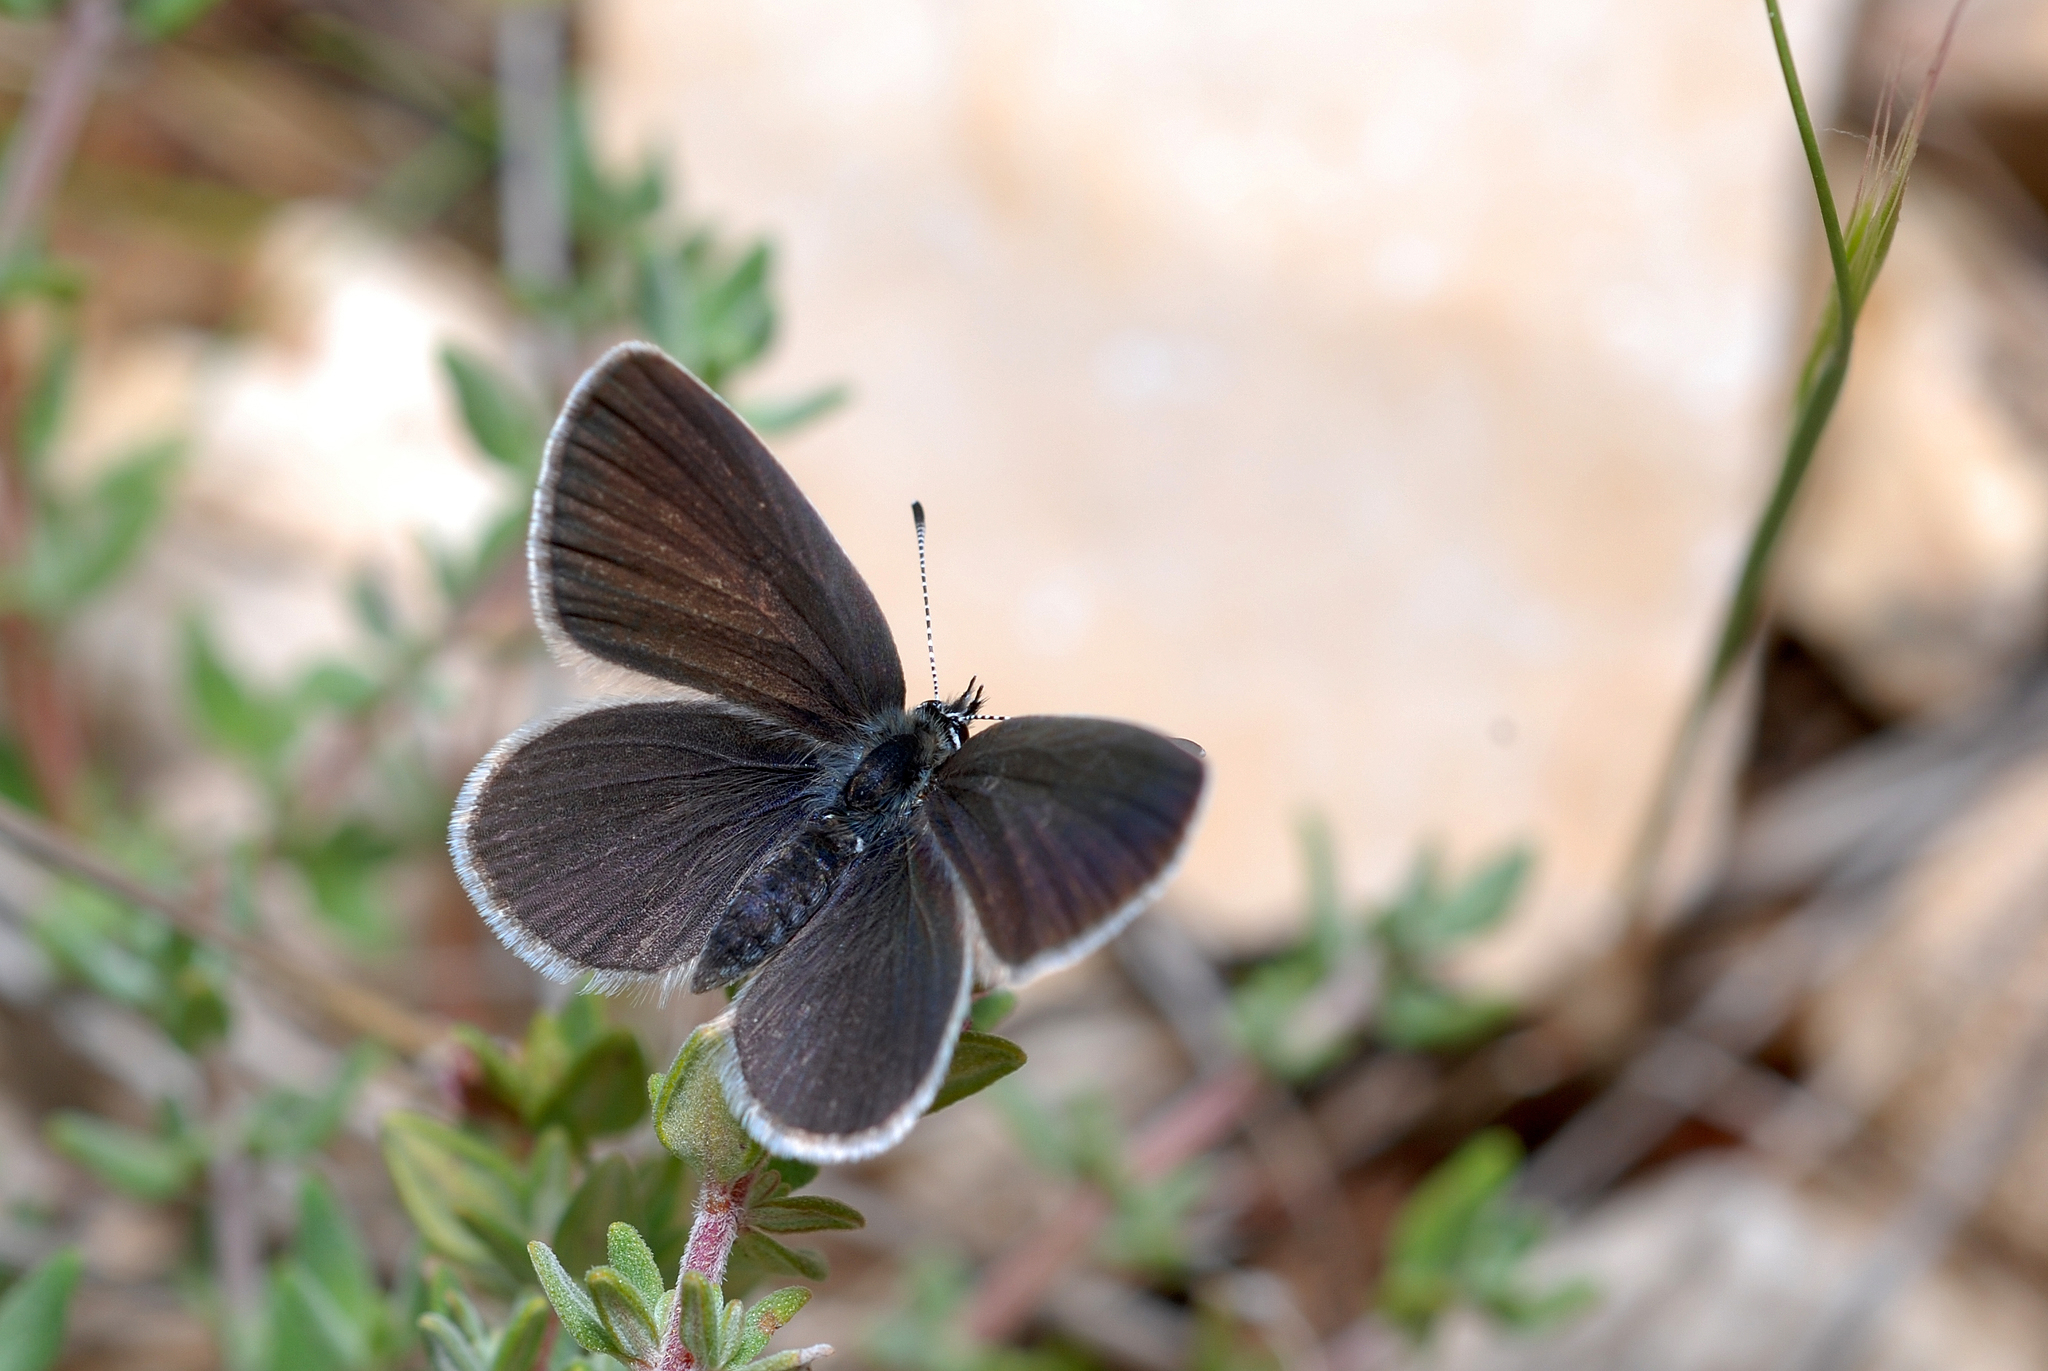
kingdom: Animalia
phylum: Arthropoda
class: Insecta
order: Lepidoptera
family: Lycaenidae
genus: Cupido
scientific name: Cupido minimus
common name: Small blue
